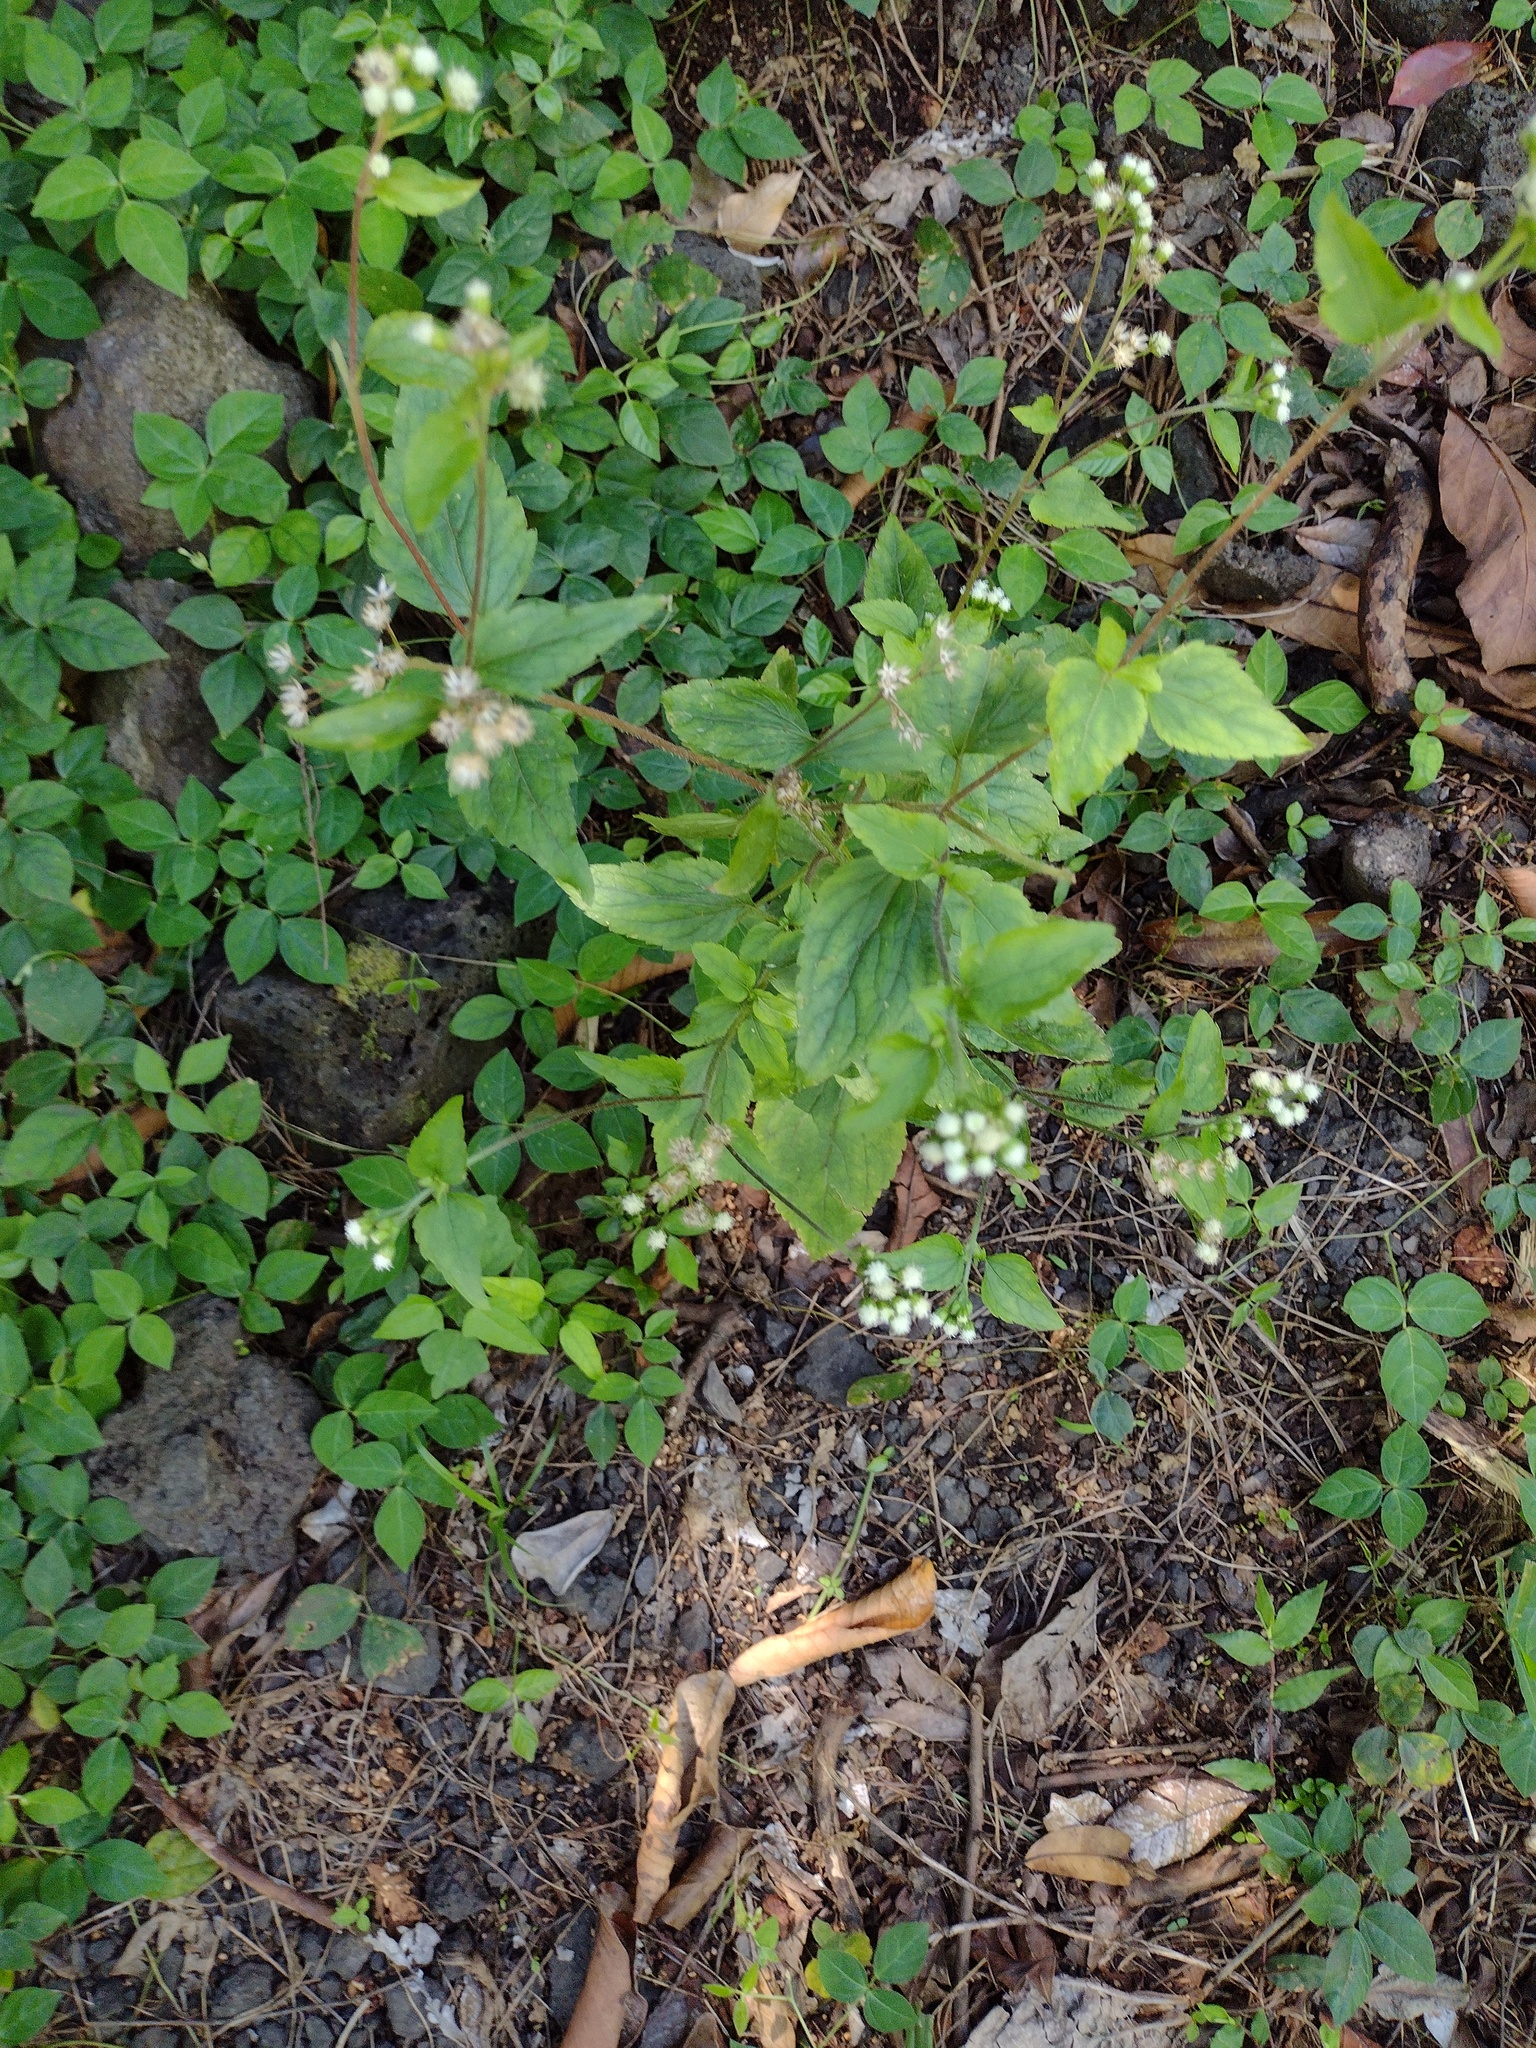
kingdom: Plantae
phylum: Tracheophyta
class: Magnoliopsida
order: Asterales
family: Asteraceae
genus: Ageratum
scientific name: Ageratum conyzoides
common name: Tropical whiteweed
